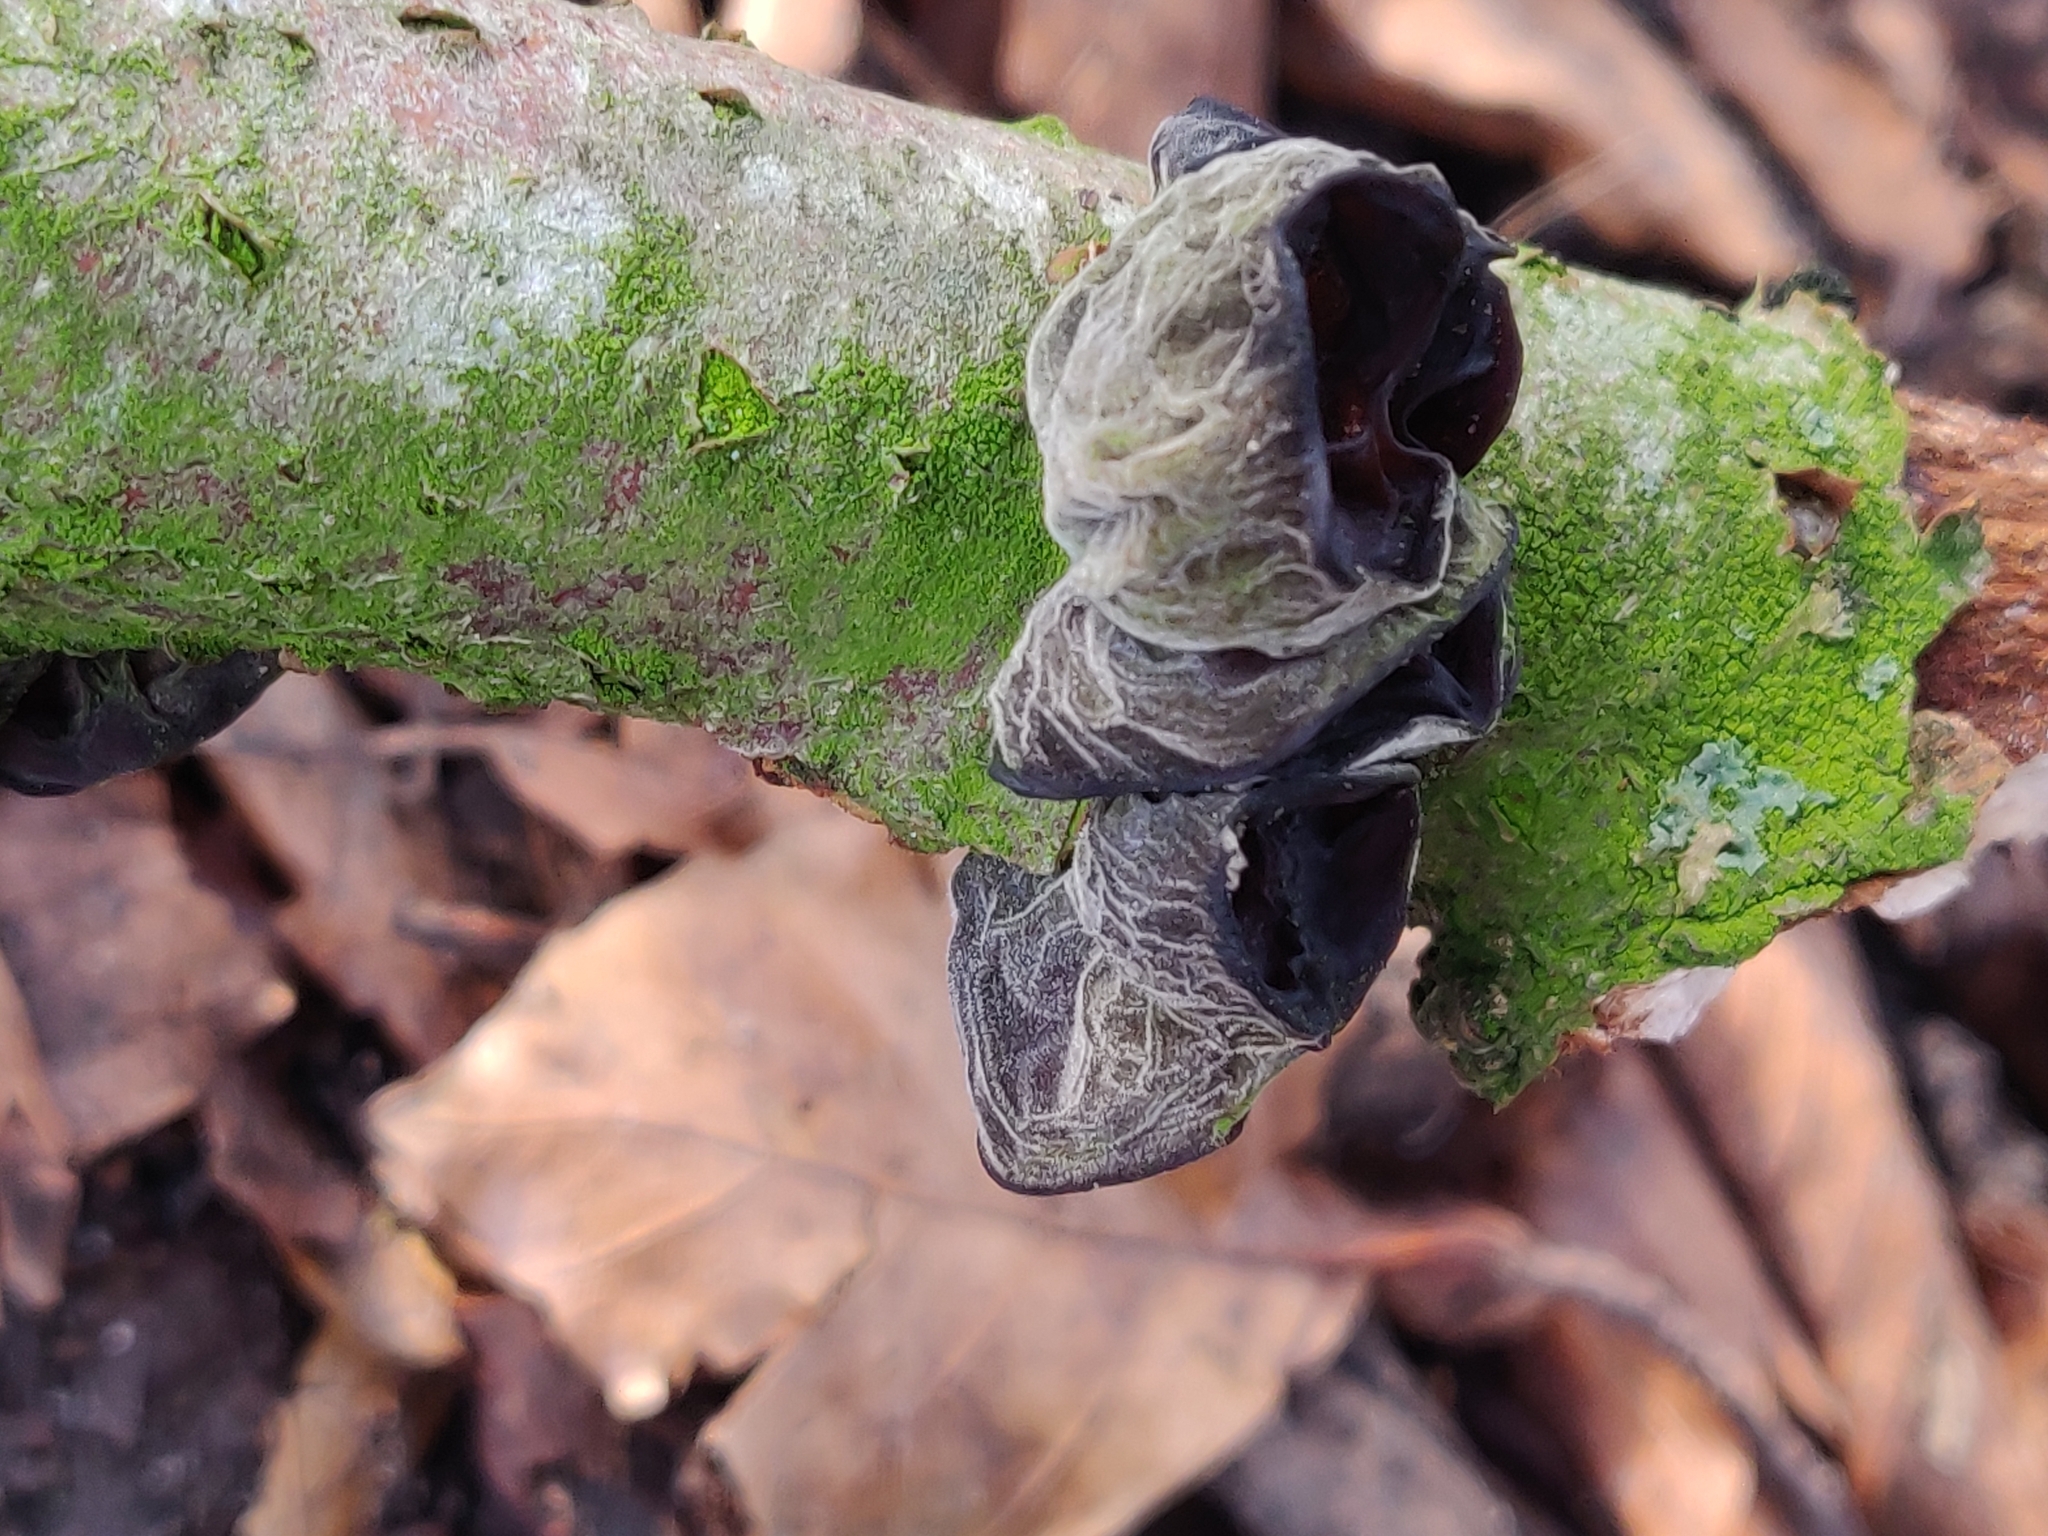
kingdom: Fungi
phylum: Basidiomycota
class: Agaricomycetes
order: Auriculariales
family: Auriculariaceae
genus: Auricularia
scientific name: Auricularia auricula-judae
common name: Jelly ear
